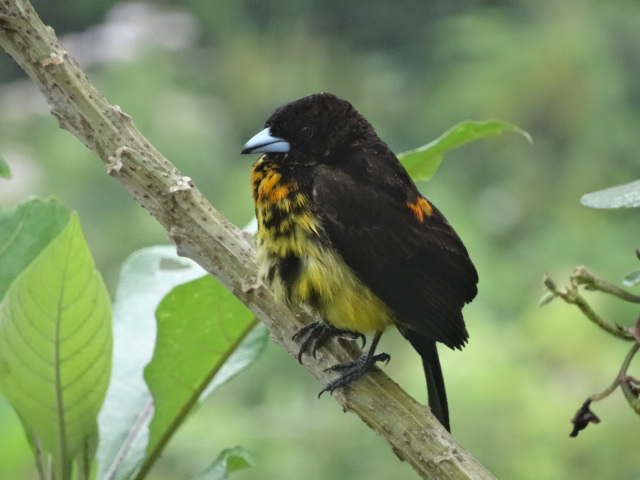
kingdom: Animalia
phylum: Chordata
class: Aves
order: Passeriformes
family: Thraupidae
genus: Ramphocelus
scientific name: Ramphocelus flammigerus
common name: Flame-rumped tanager
